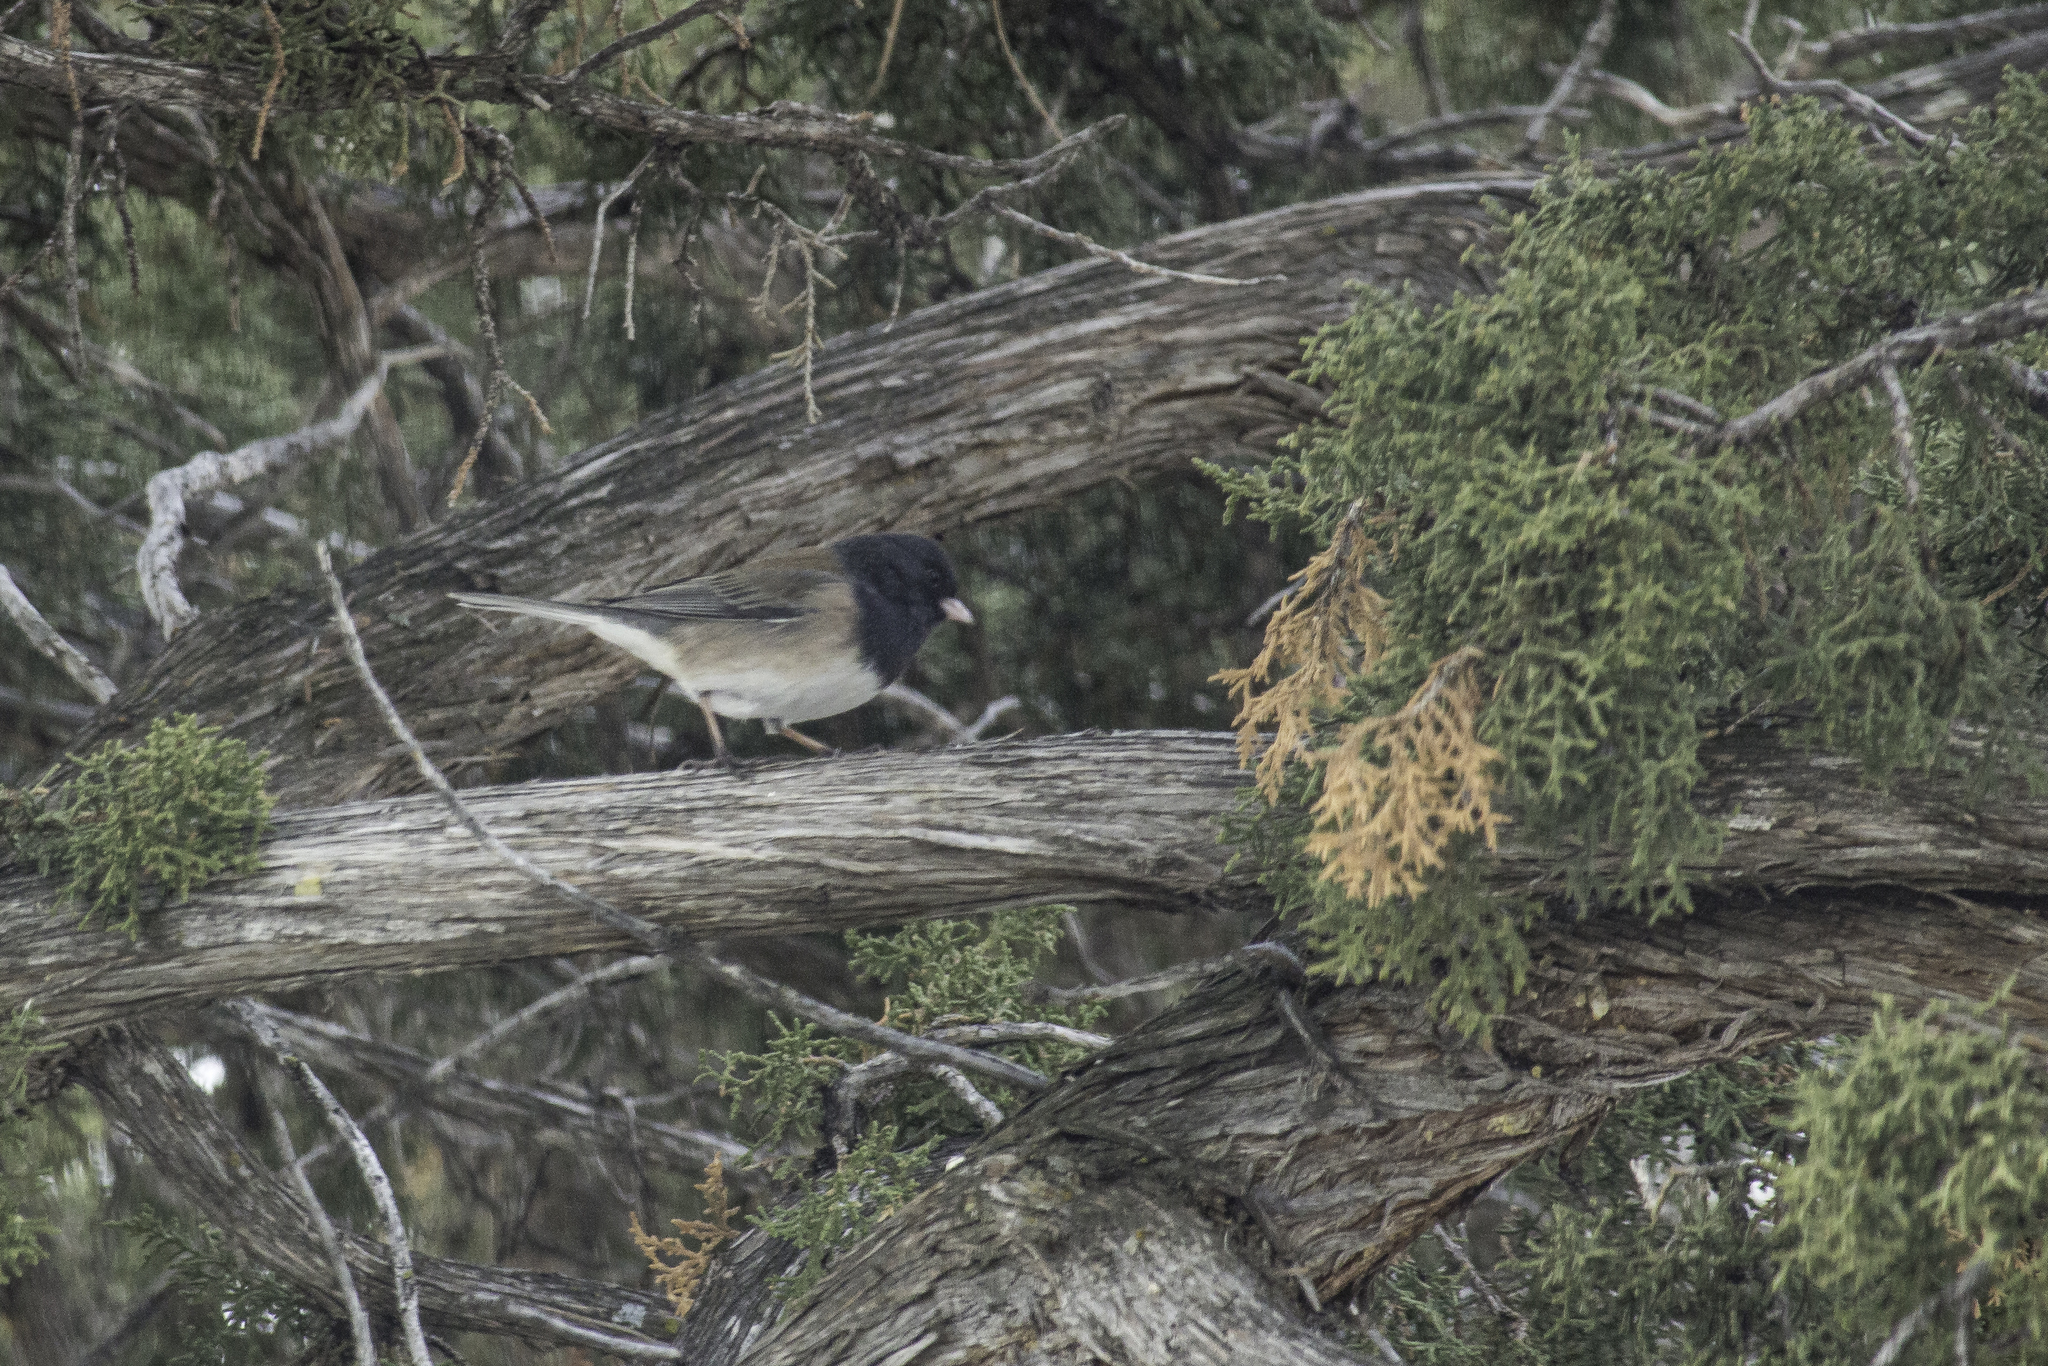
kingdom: Animalia
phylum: Chordata
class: Aves
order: Passeriformes
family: Passerellidae
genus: Junco
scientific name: Junco hyemalis
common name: Dark-eyed junco
